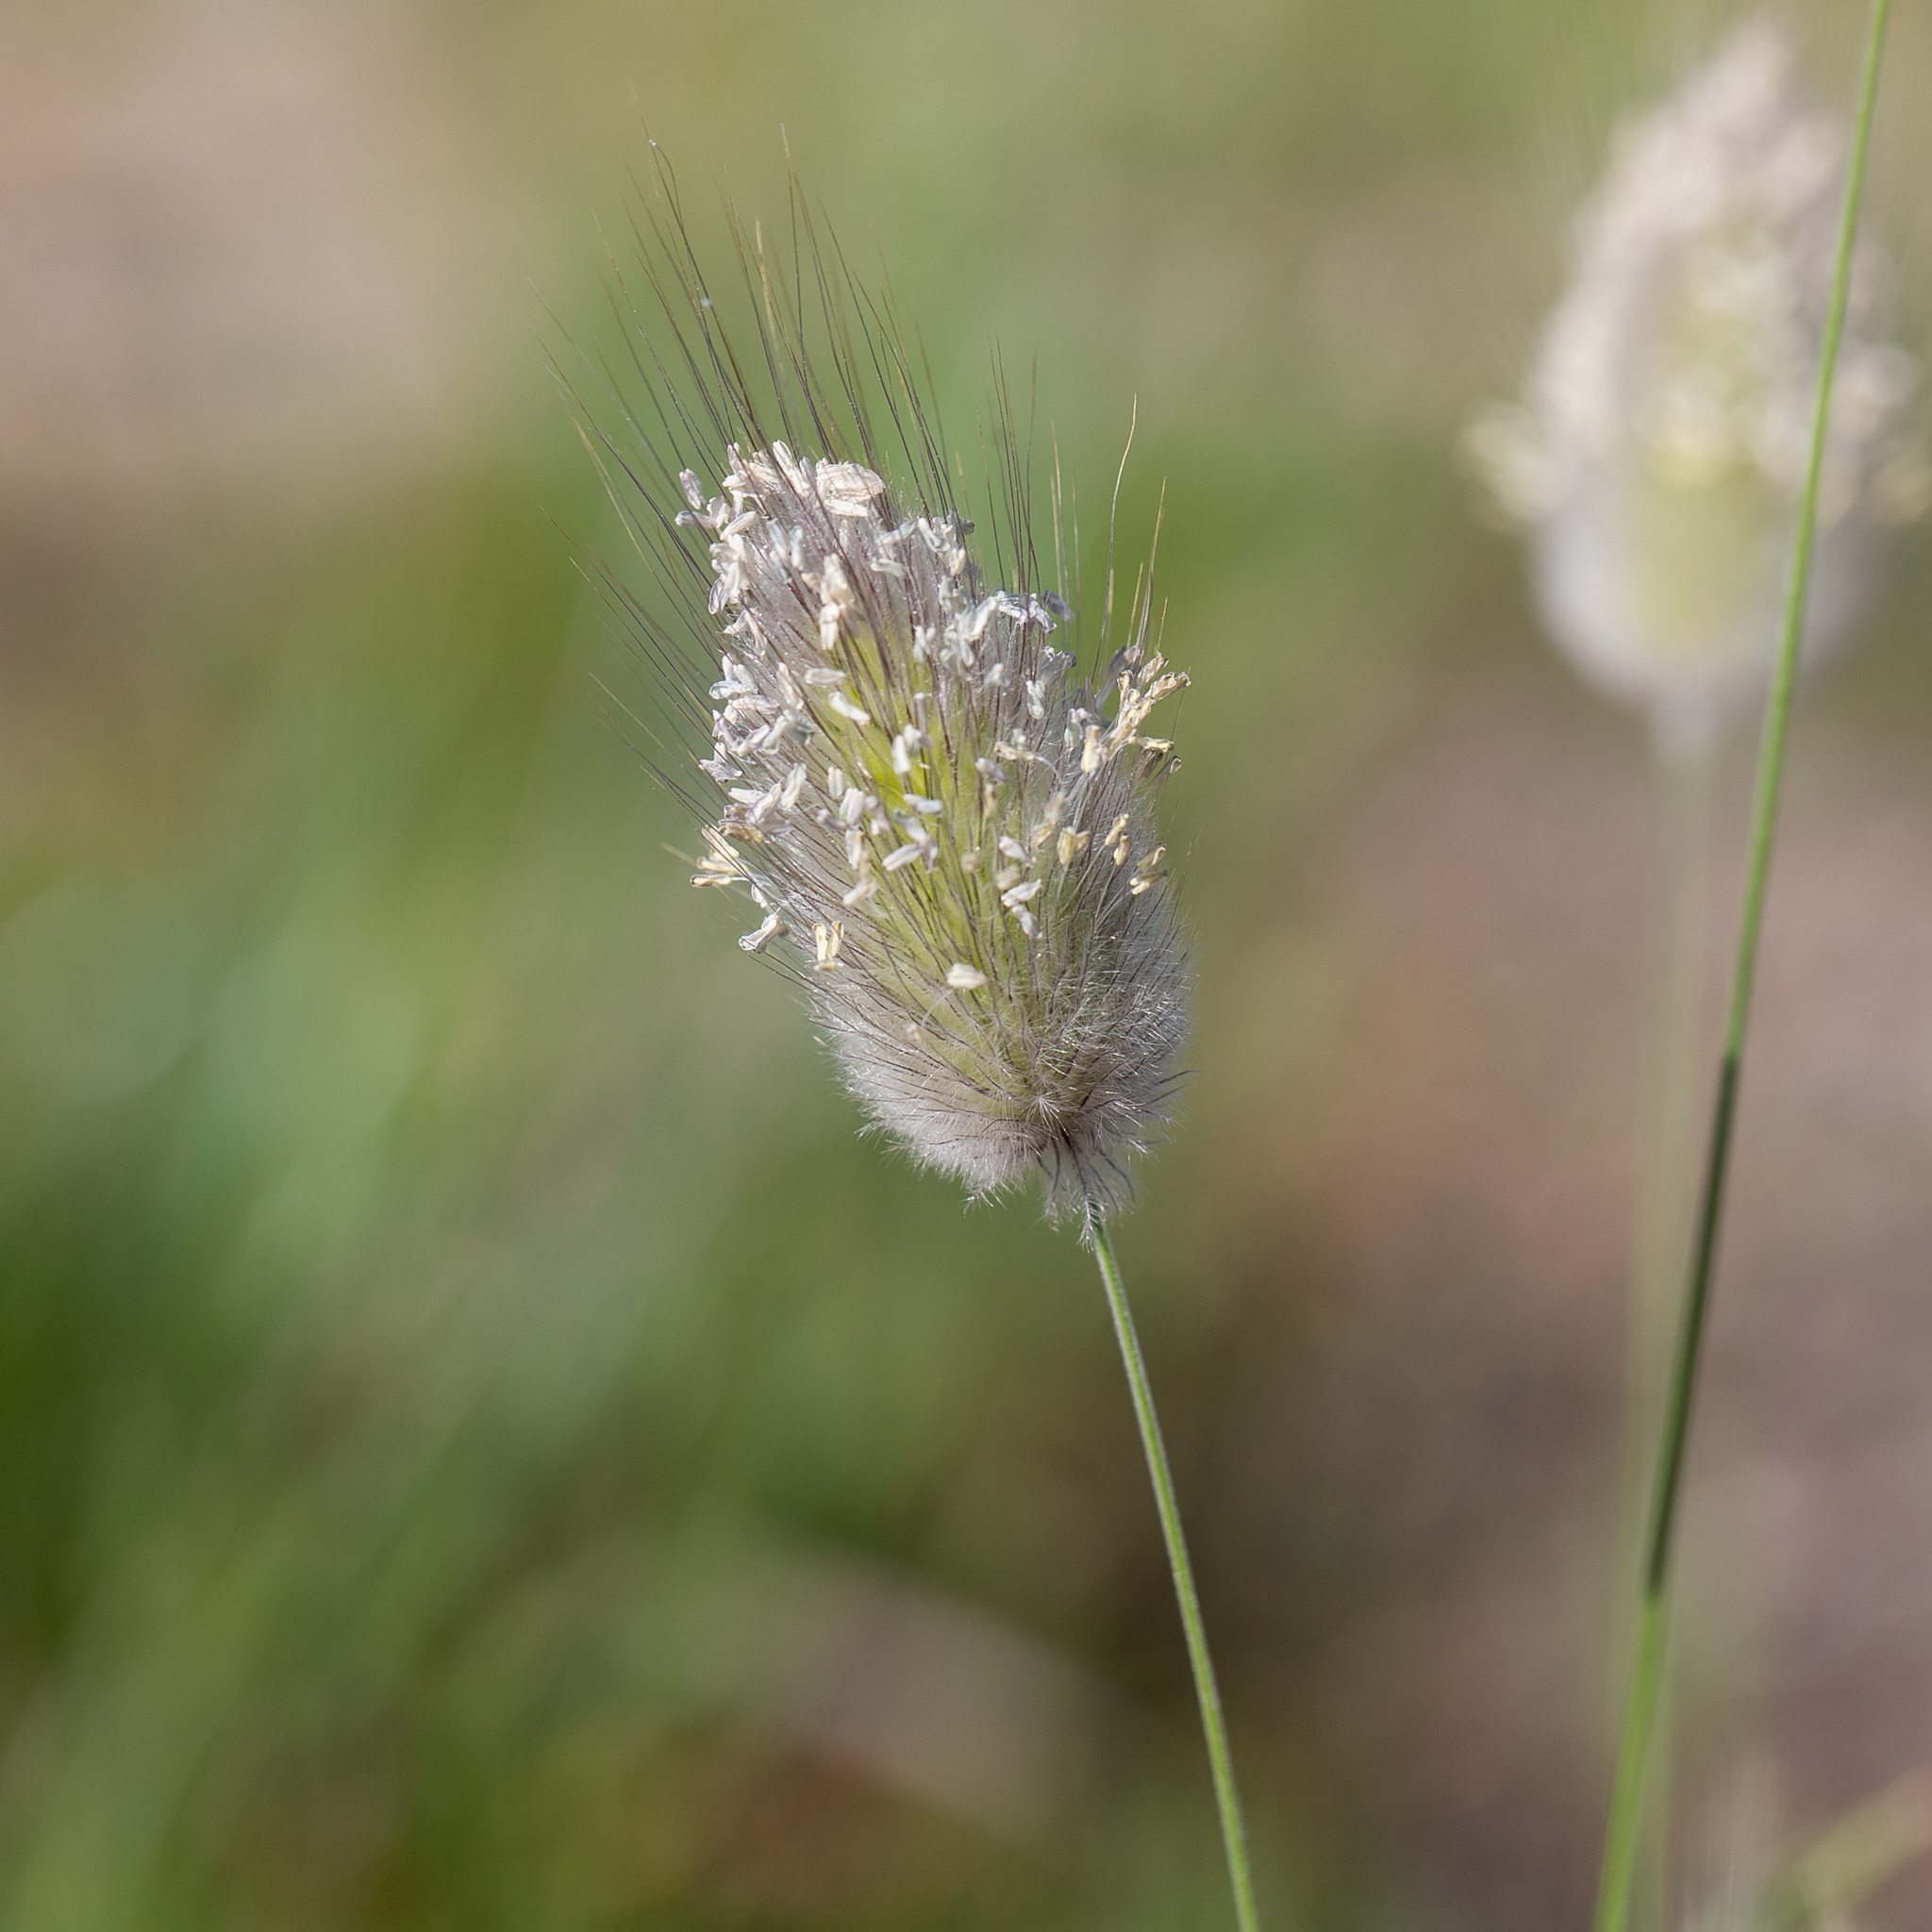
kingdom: Plantae
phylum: Tracheophyta
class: Liliopsida
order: Poales
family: Poaceae
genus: Lagurus
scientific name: Lagurus ovatus
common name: Hare's-tail
